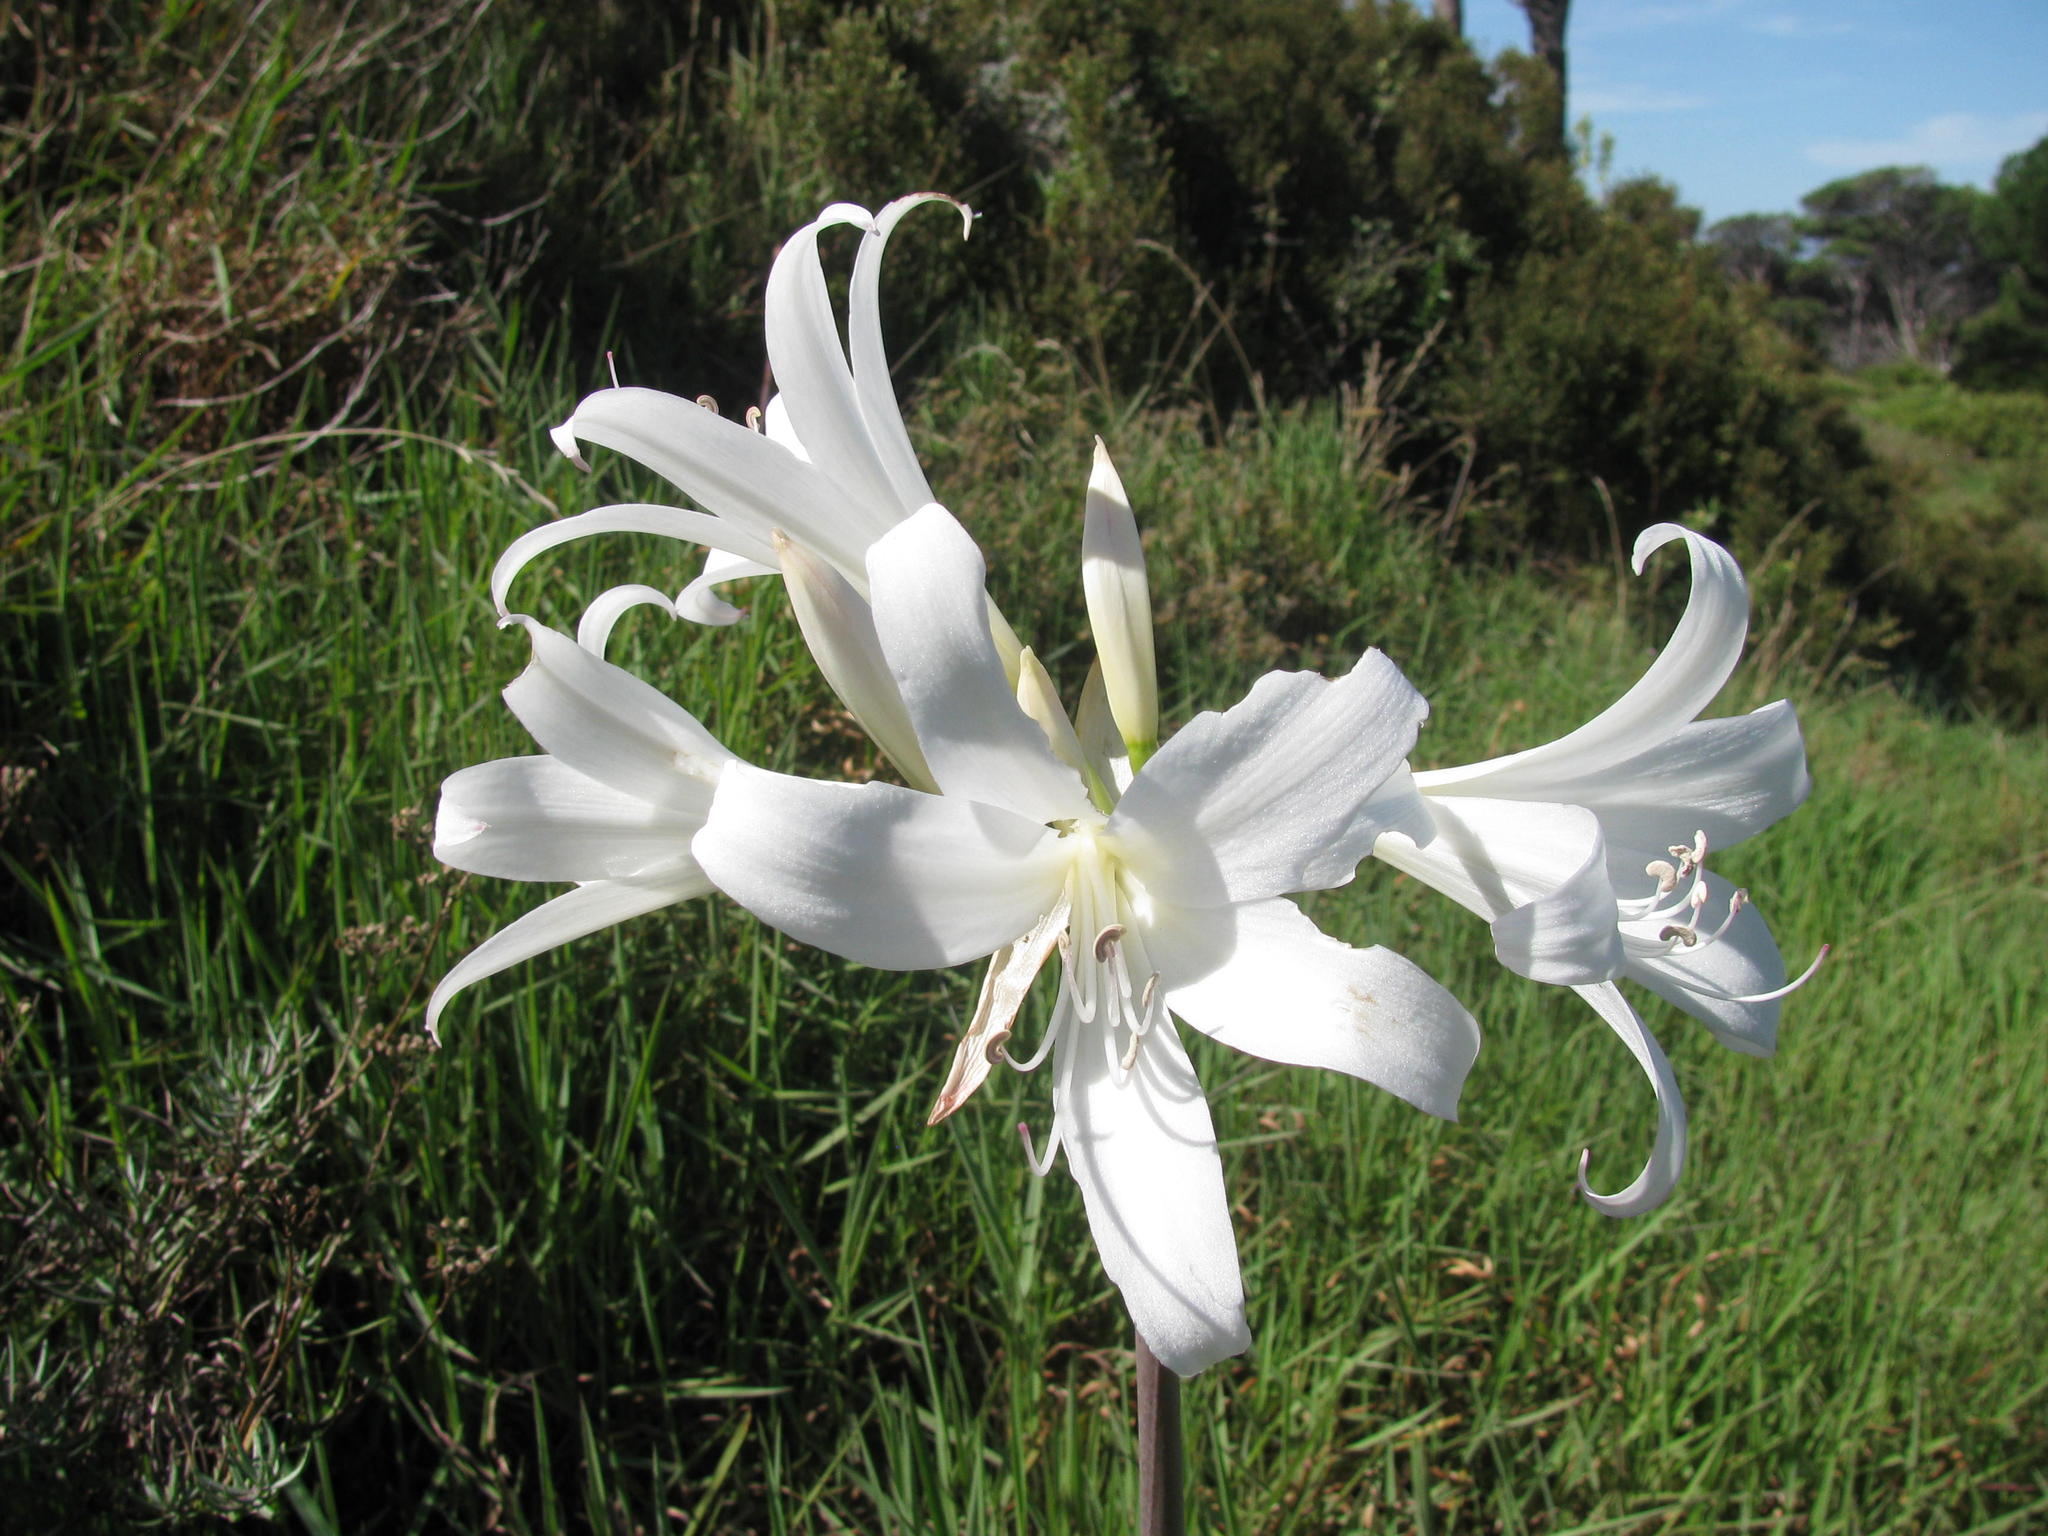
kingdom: Plantae
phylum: Tracheophyta
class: Liliopsida
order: Asparagales
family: Amaryllidaceae
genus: Amaryllis
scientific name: Amaryllis belladonna
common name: Jersey lily
